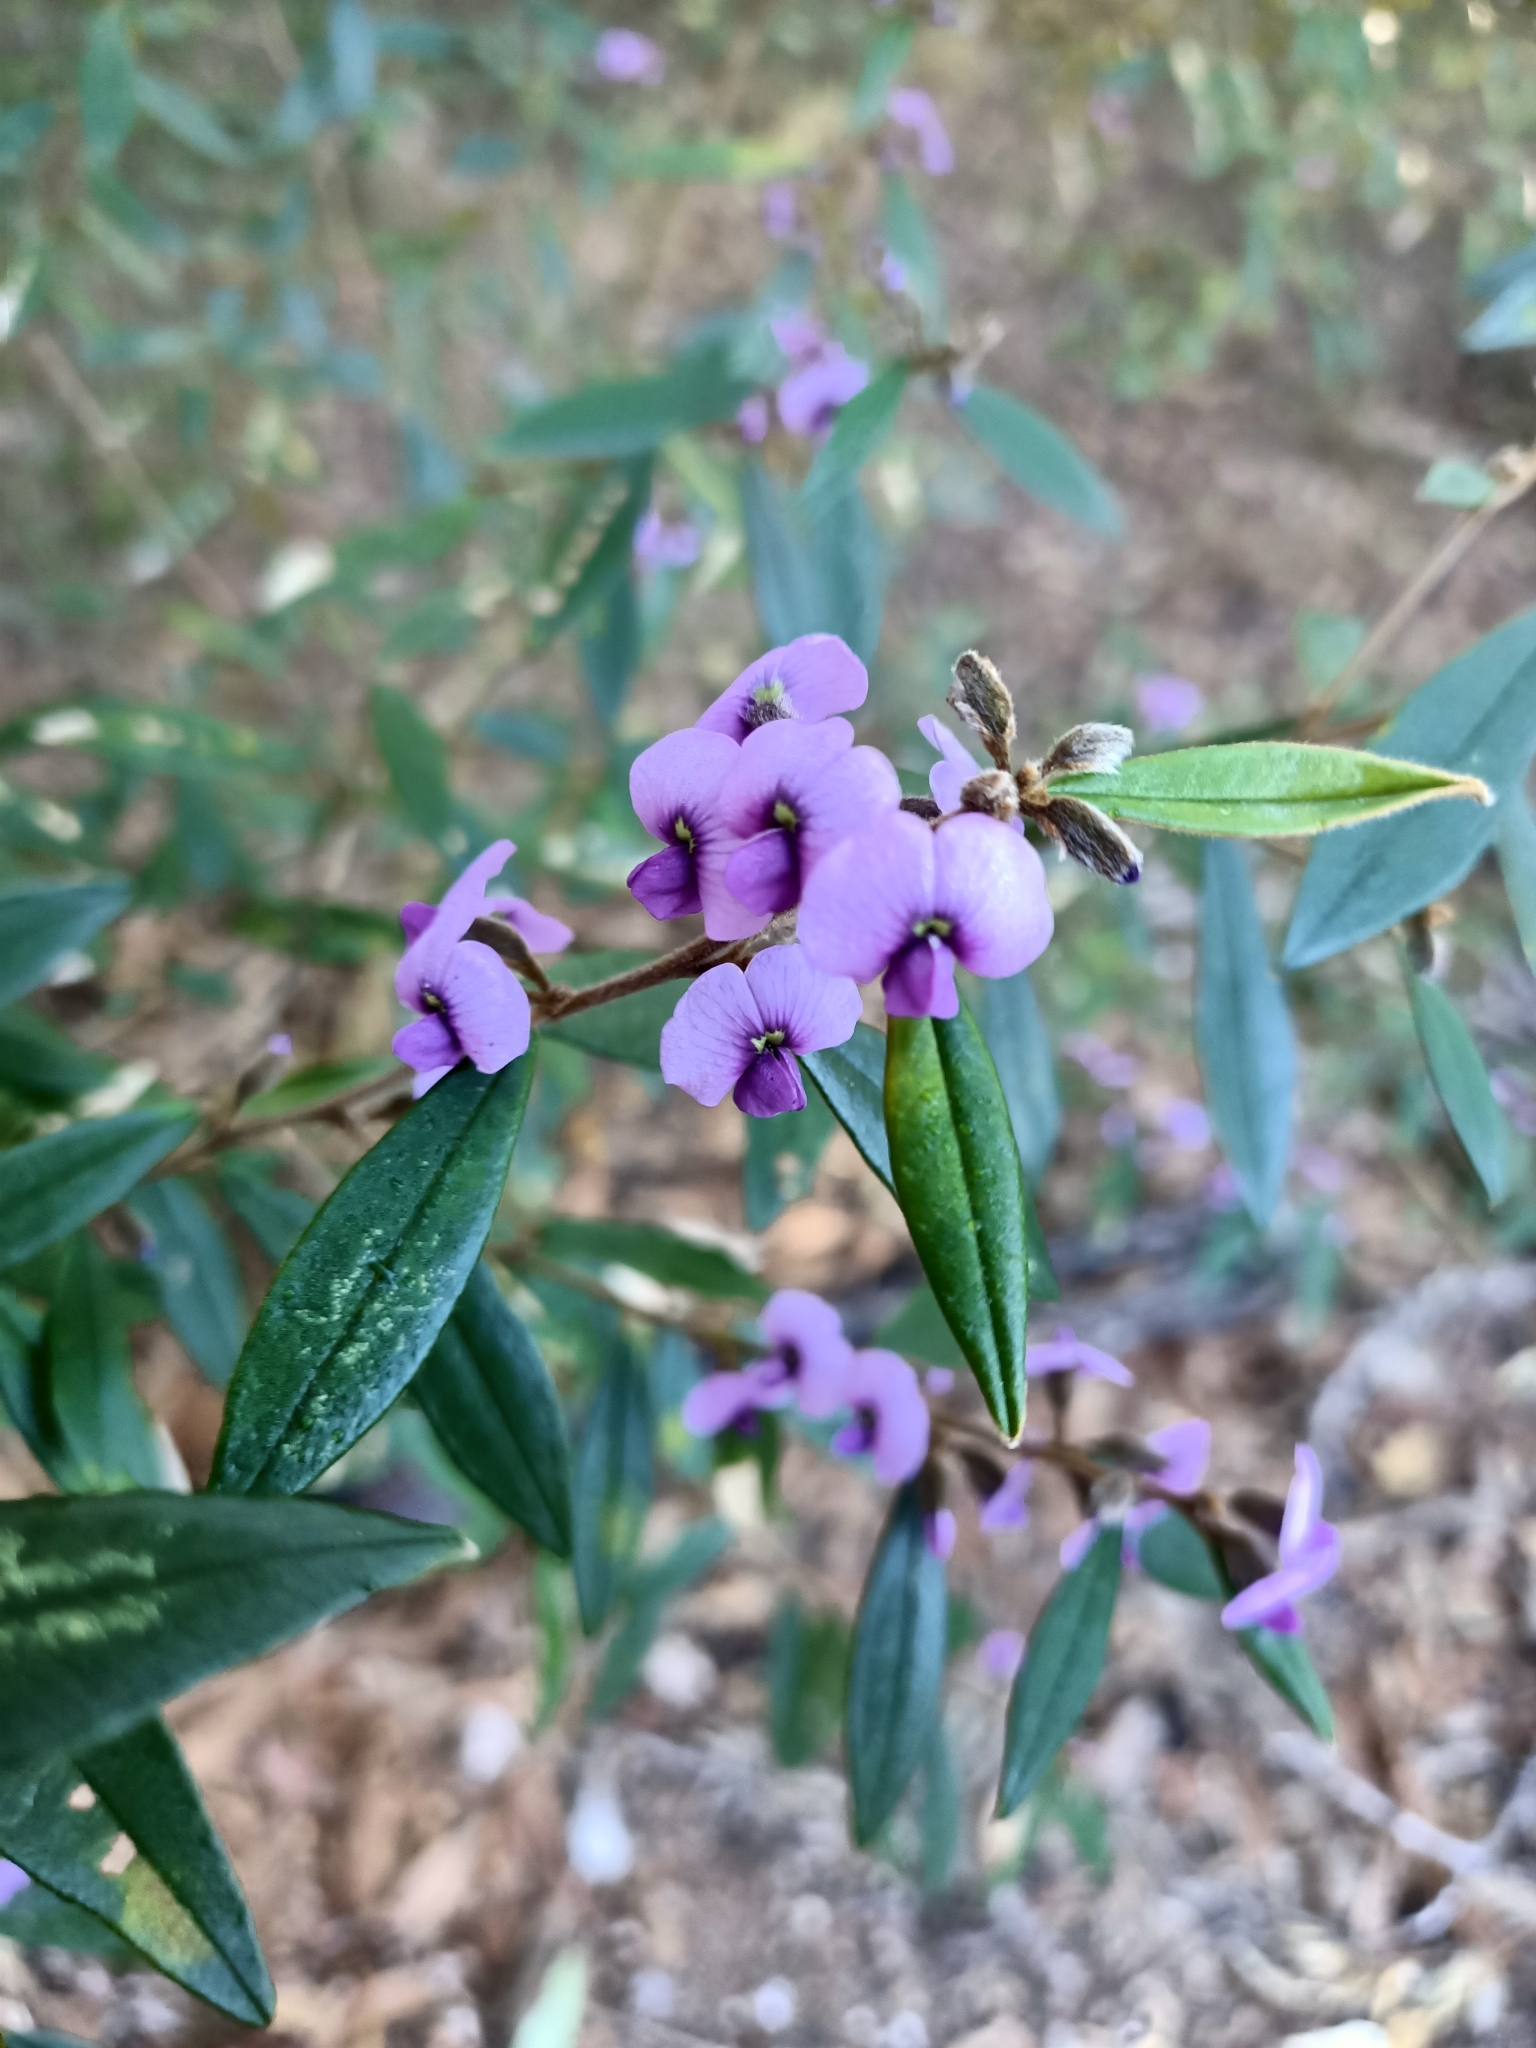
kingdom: Plantae
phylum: Tracheophyta
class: Magnoliopsida
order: Fabales
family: Fabaceae
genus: Hovea
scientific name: Hovea acutifolia
